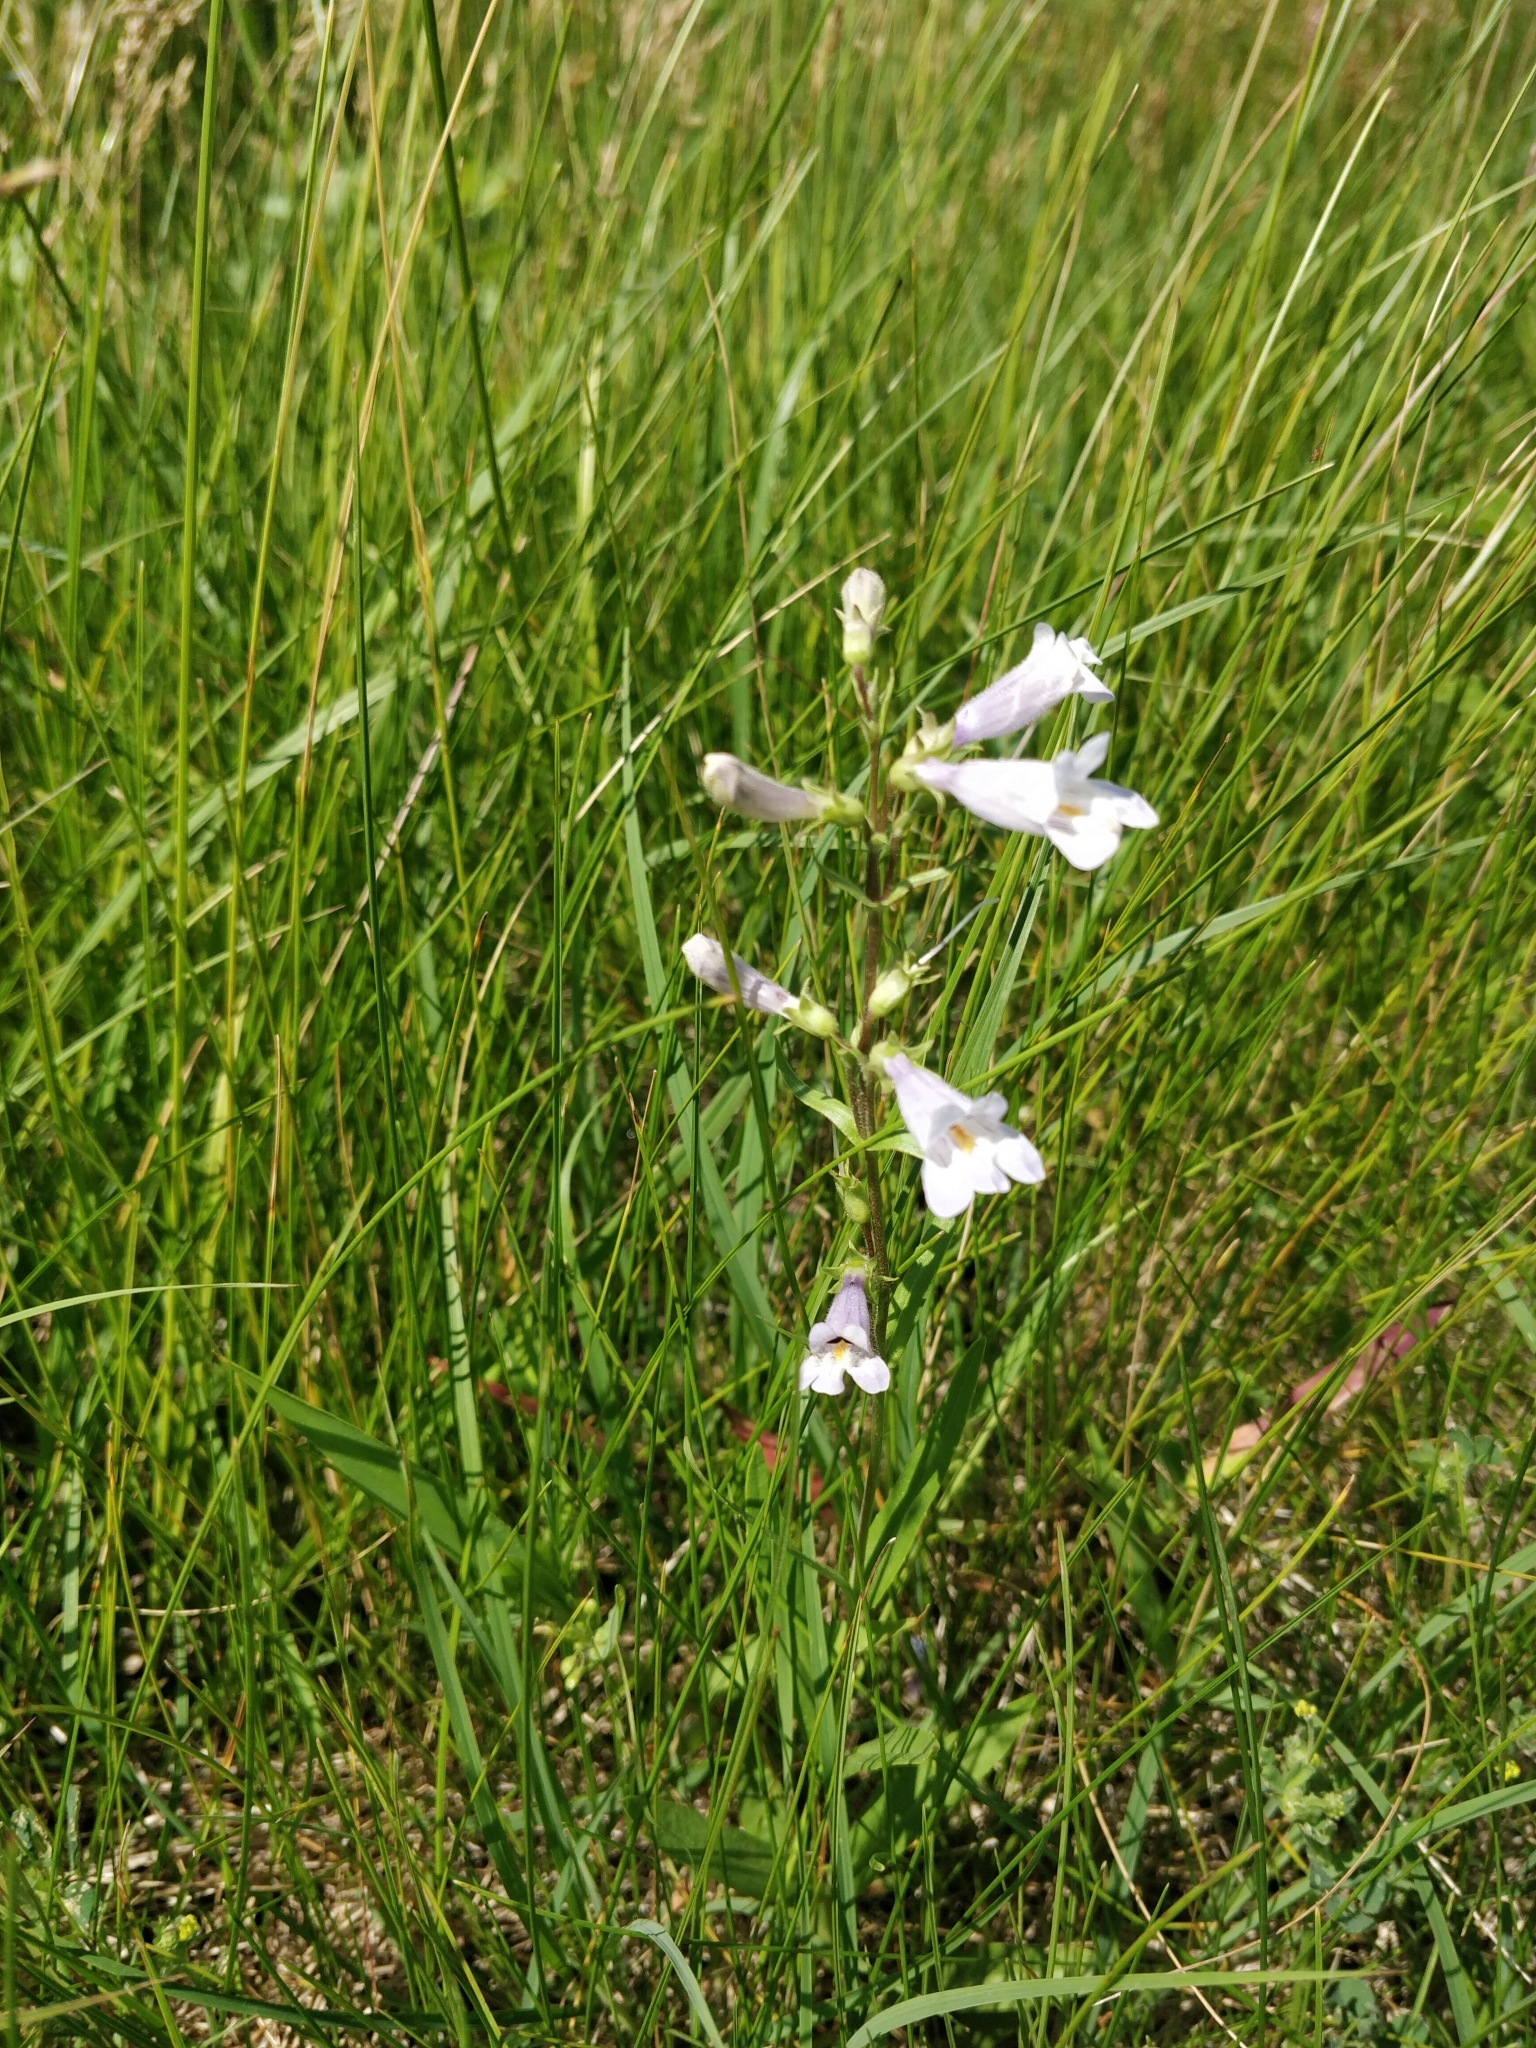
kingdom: Plantae
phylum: Tracheophyta
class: Magnoliopsida
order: Lamiales
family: Plantaginaceae
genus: Penstemon
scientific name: Penstemon gracilis
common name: Slender beardtongue
